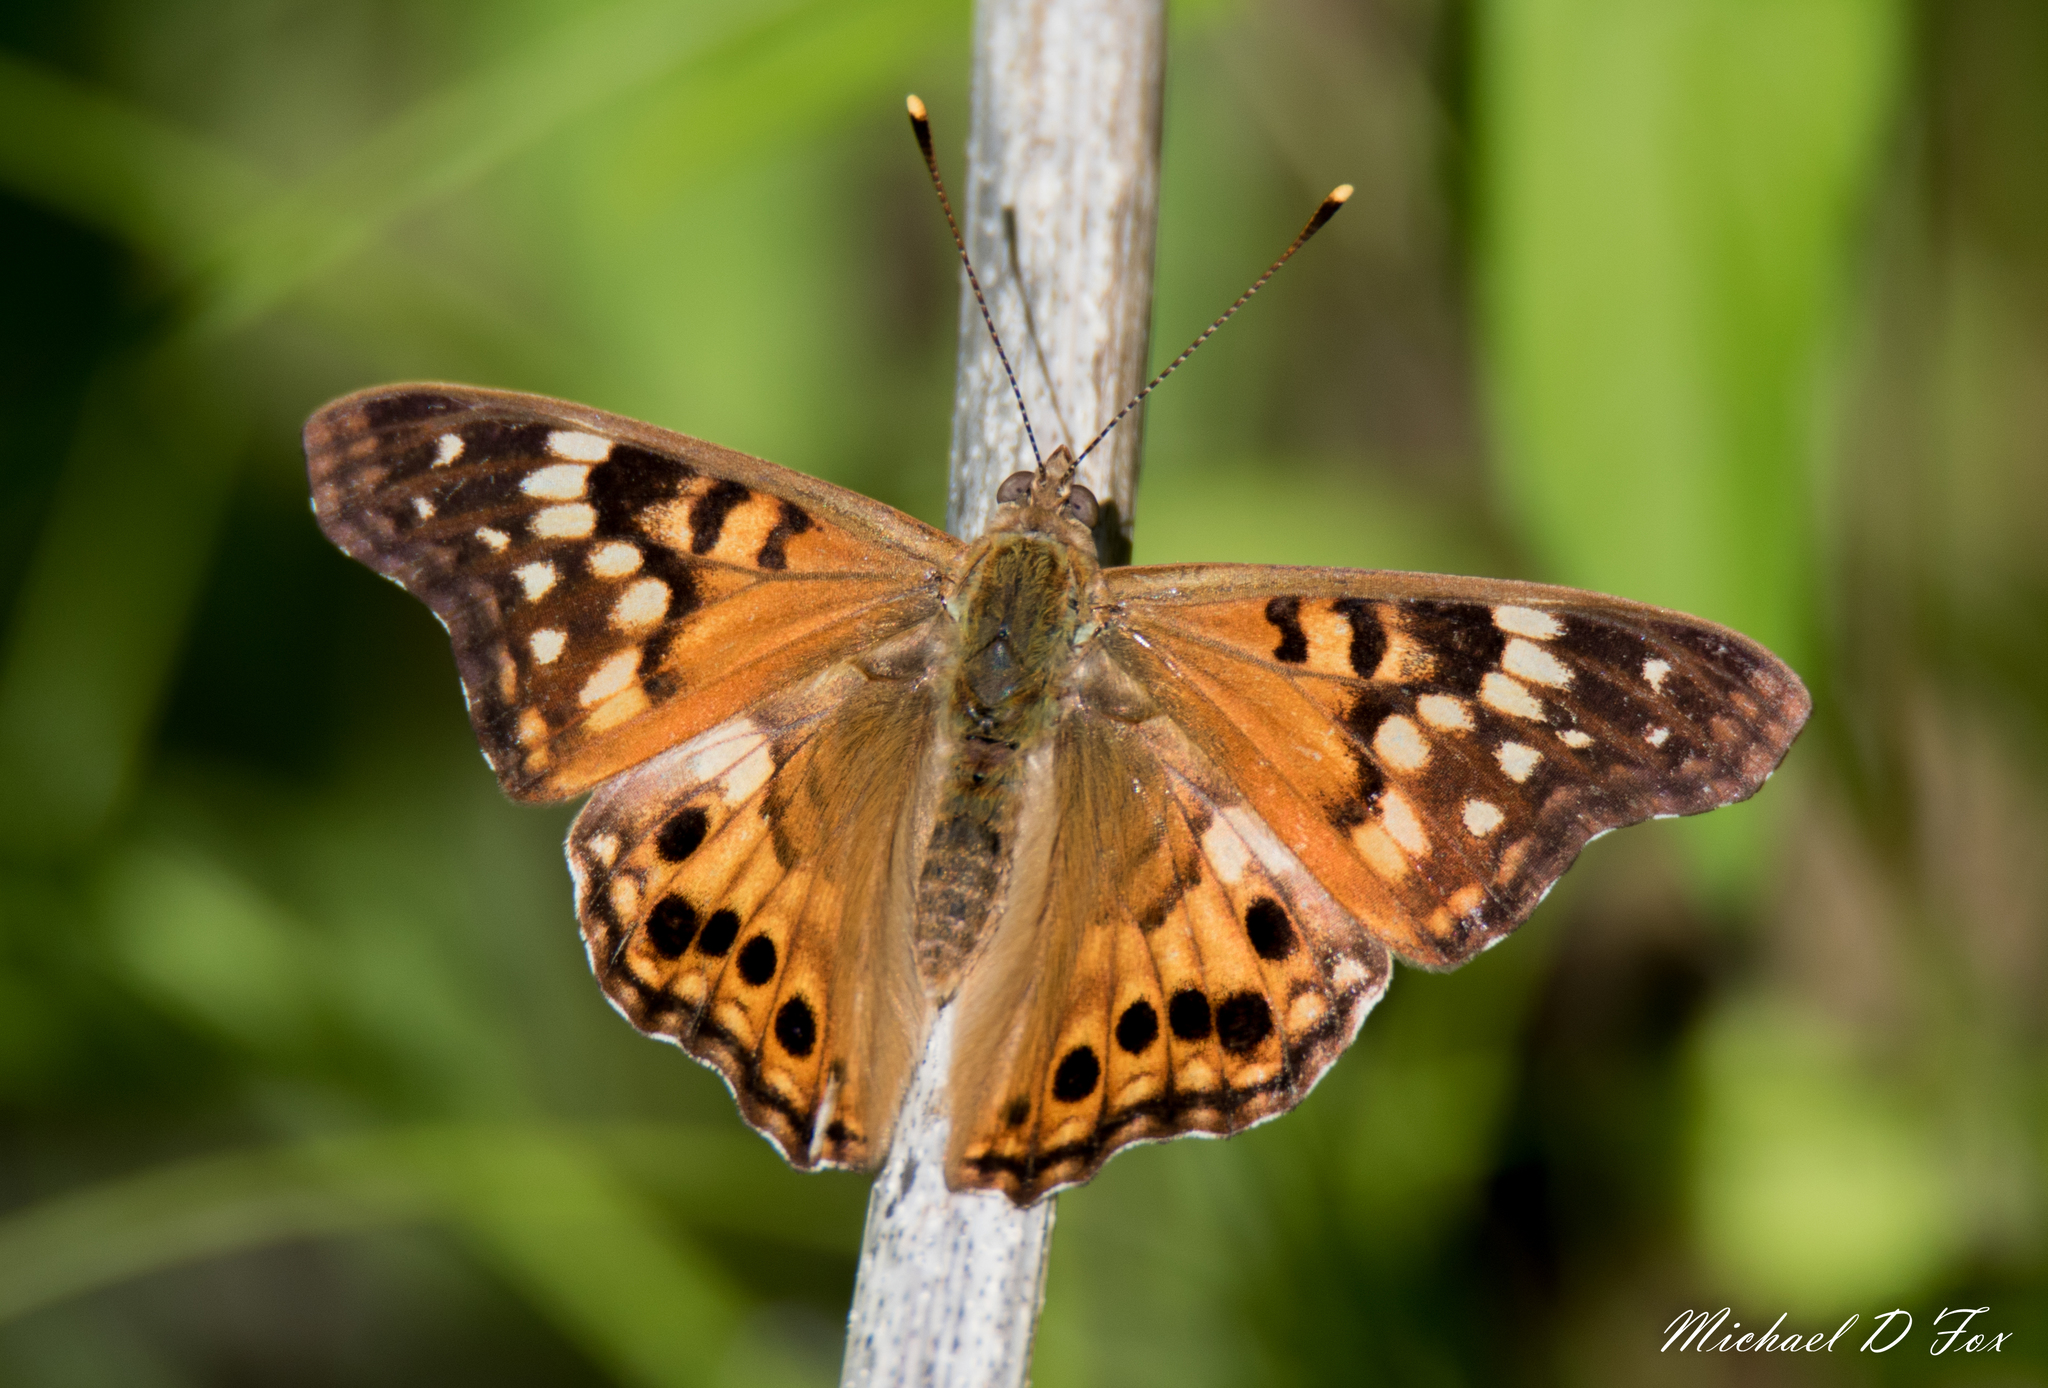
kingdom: Animalia
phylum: Arthropoda
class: Insecta
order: Lepidoptera
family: Nymphalidae
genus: Asterocampa
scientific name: Asterocampa clyton
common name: Tawny emperor
